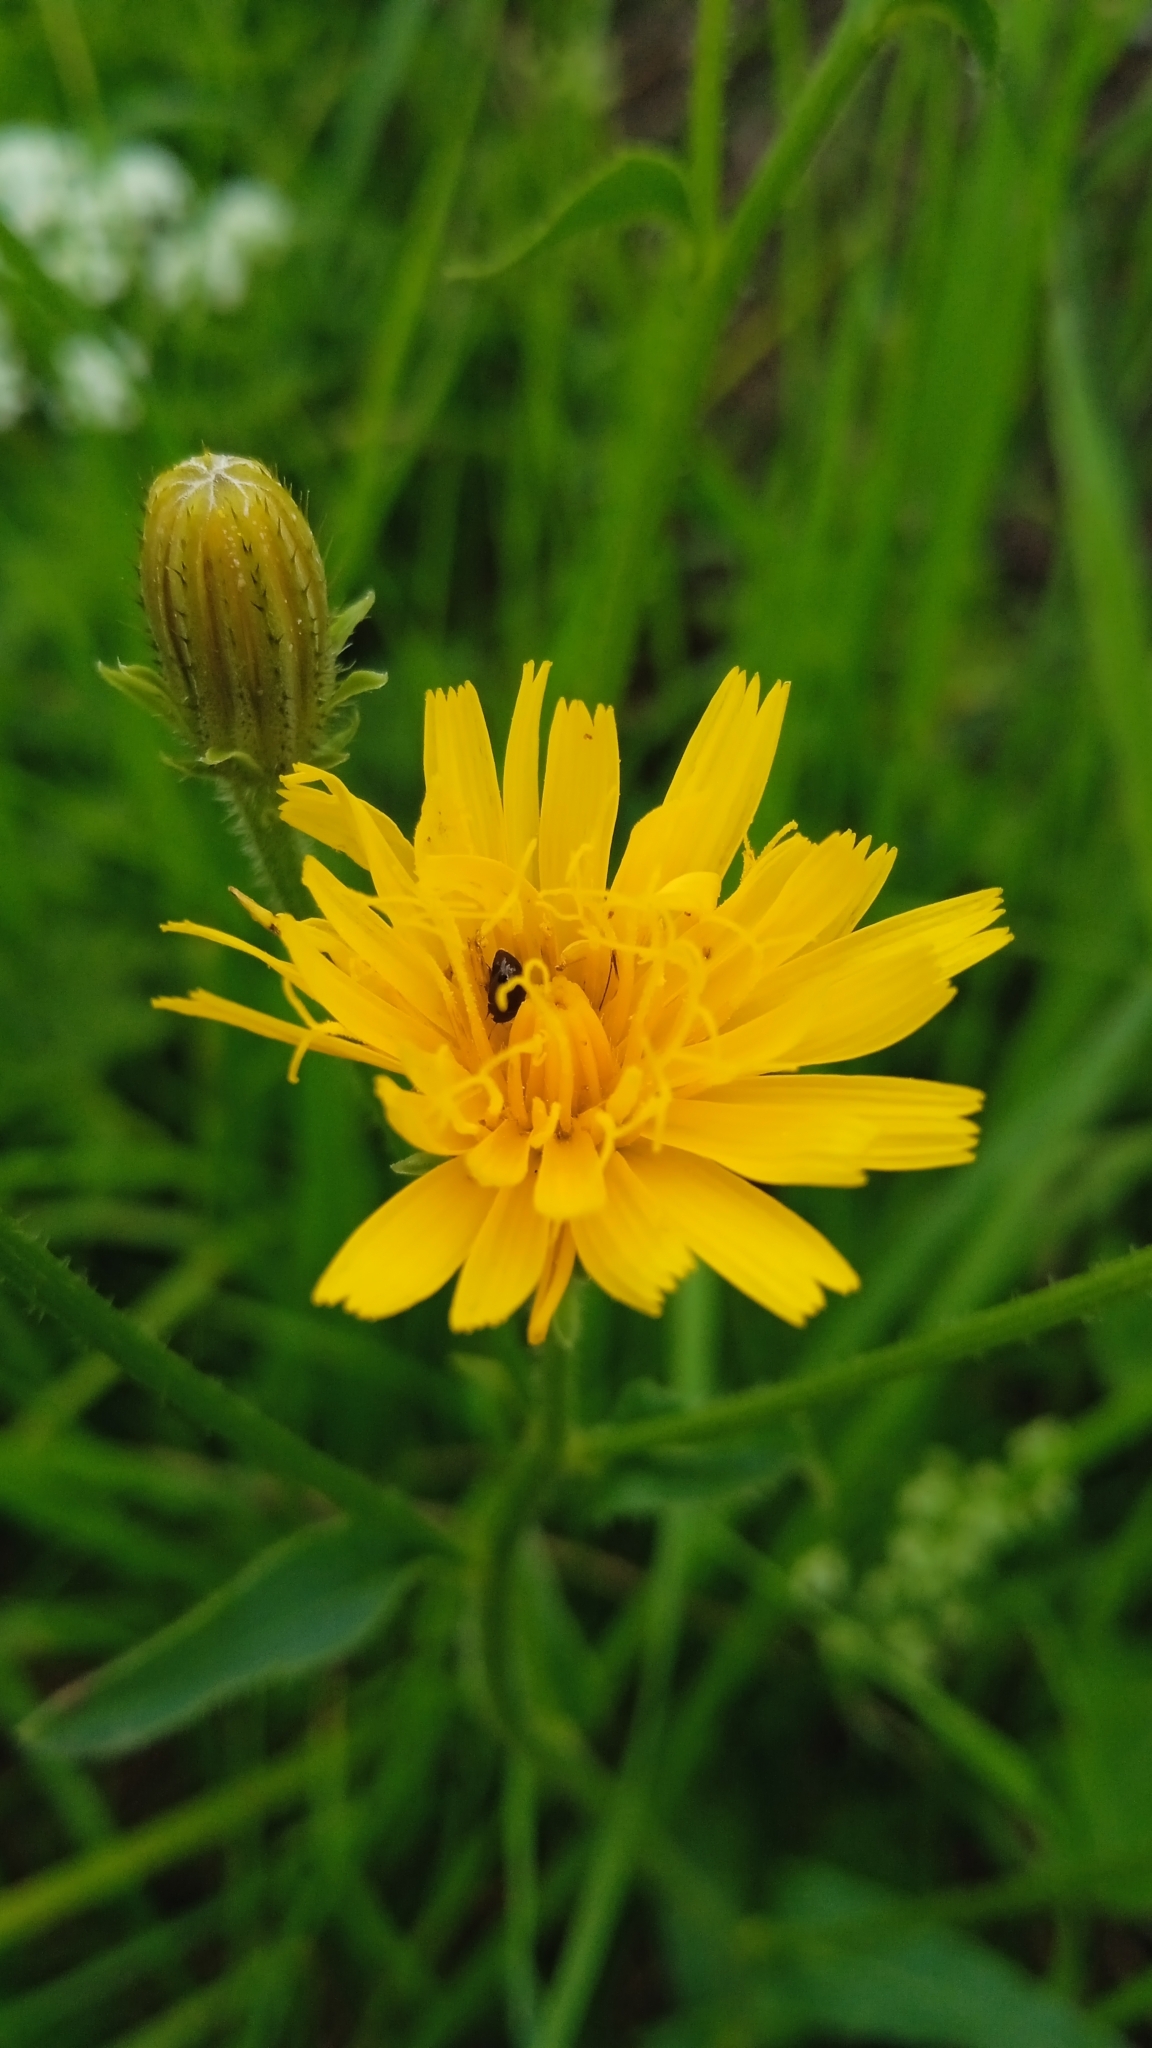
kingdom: Plantae
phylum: Tracheophyta
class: Magnoliopsida
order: Asterales
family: Asteraceae
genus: Picris
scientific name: Picris hieracioides
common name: Hawkweed oxtongue
